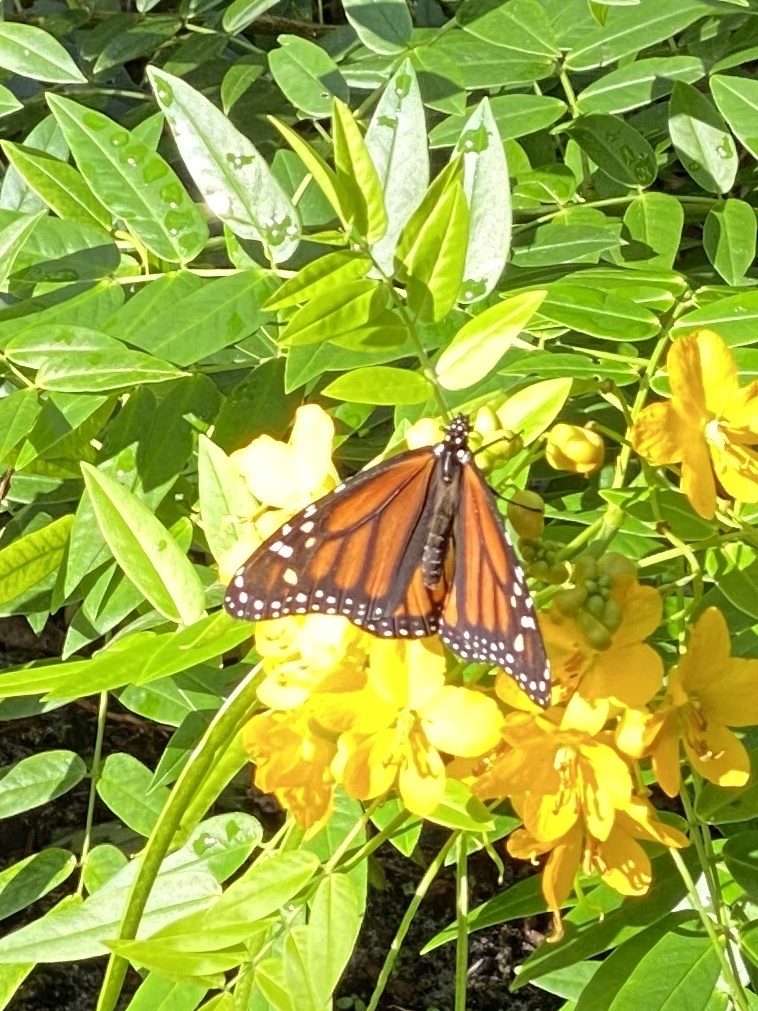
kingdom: Animalia
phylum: Arthropoda
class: Insecta
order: Lepidoptera
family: Nymphalidae
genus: Danaus
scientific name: Danaus plexippus
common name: Monarch
